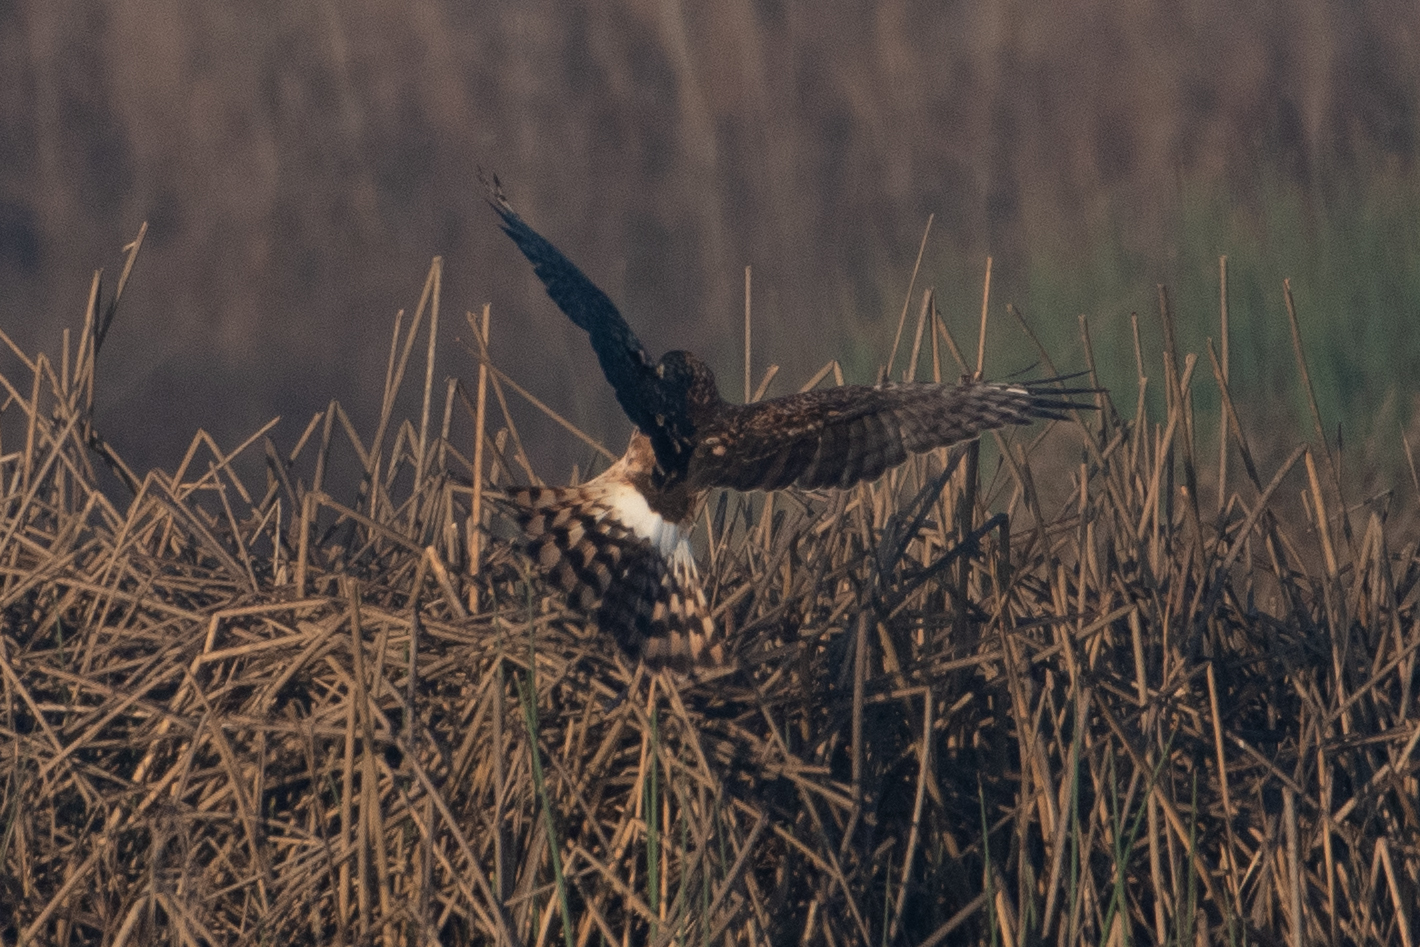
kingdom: Animalia
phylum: Chordata
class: Aves
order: Accipitriformes
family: Accipitridae
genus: Circus
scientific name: Circus cyaneus
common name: Hen harrier
